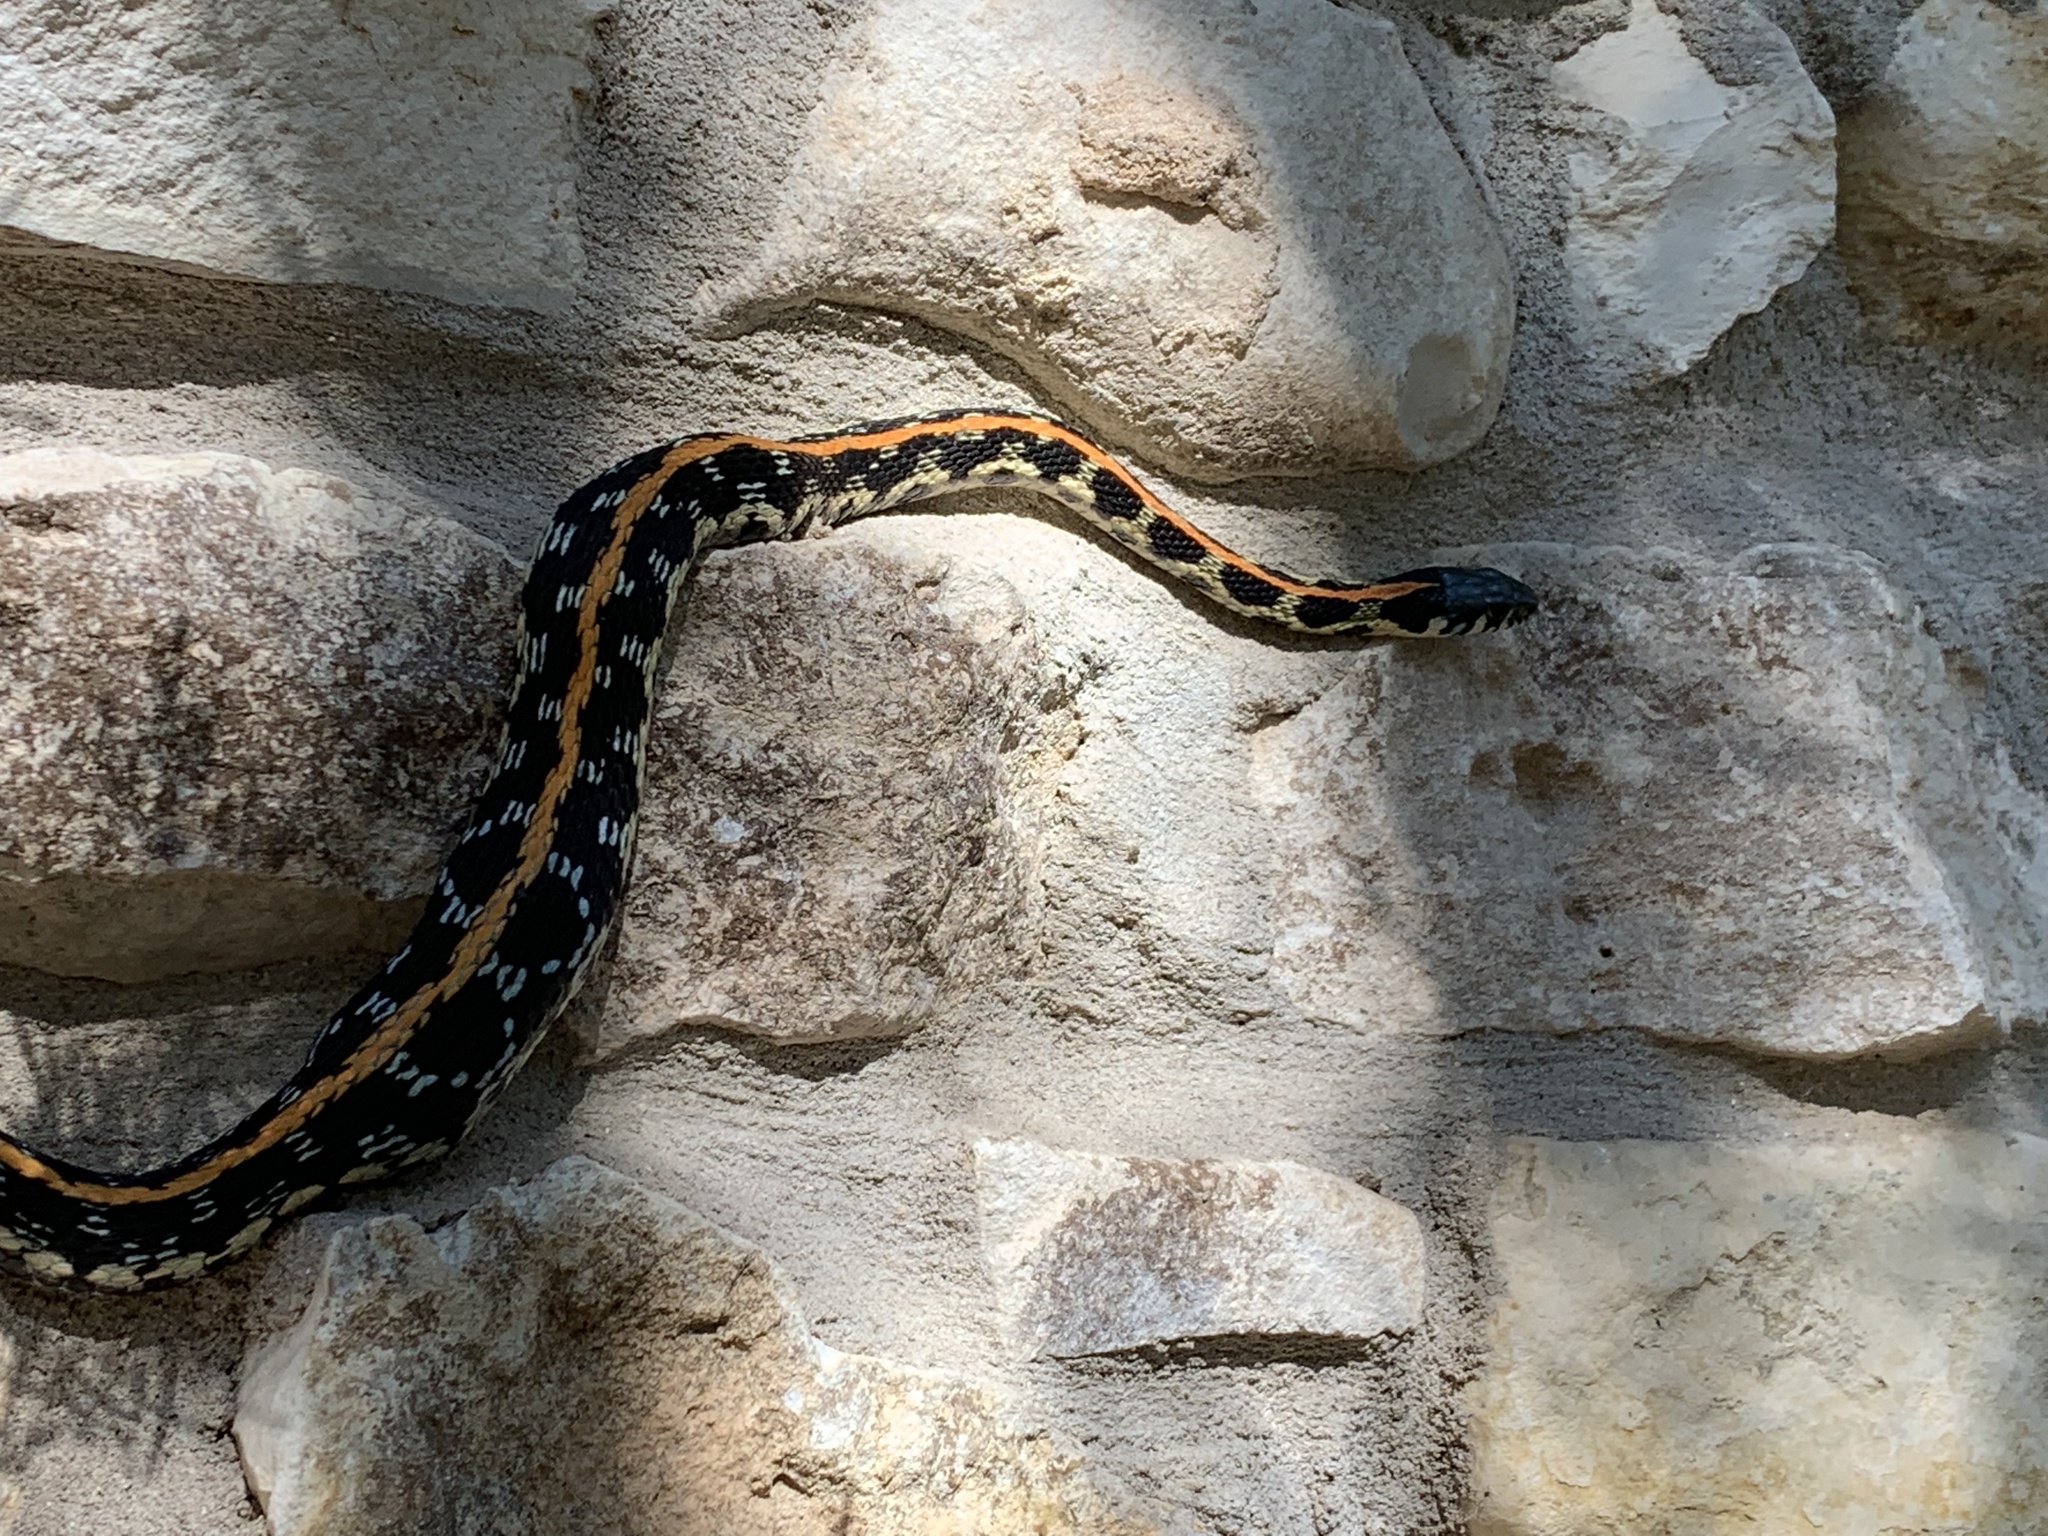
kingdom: Animalia
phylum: Chordata
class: Squamata
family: Colubridae
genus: Thamnophis
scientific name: Thamnophis cyrtopsis
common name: Black-necked gartersnake
